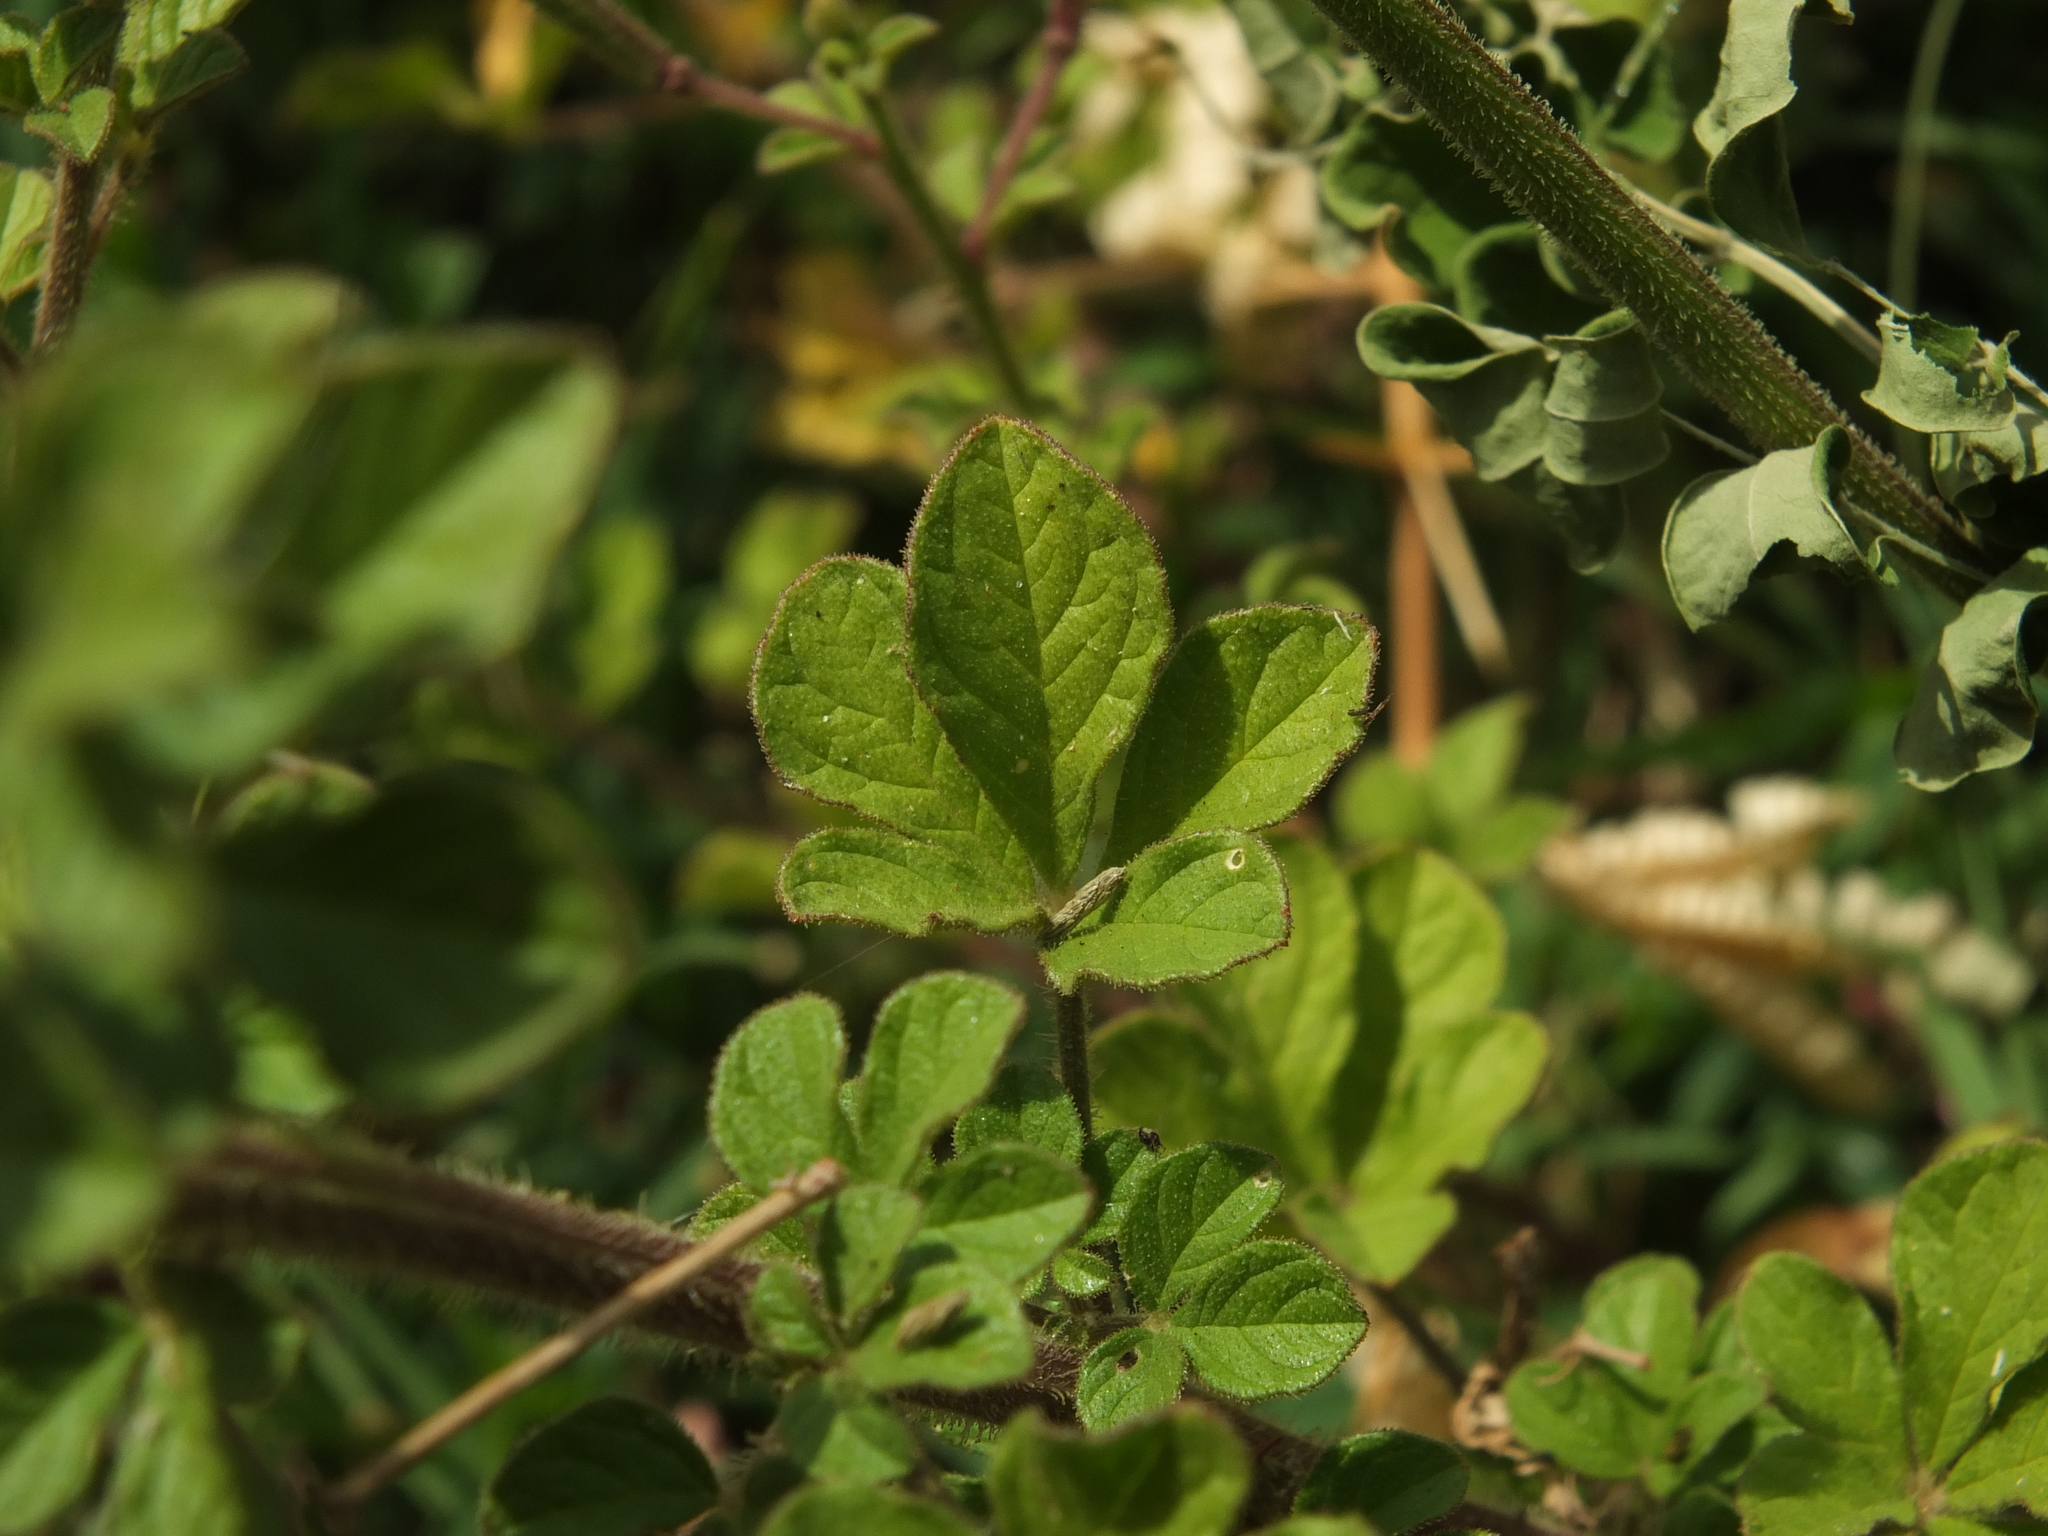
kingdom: Plantae
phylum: Tracheophyta
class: Magnoliopsida
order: Brassicales
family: Cleomaceae
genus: Arivela
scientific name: Arivela viscosa
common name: Asian spiderflower
